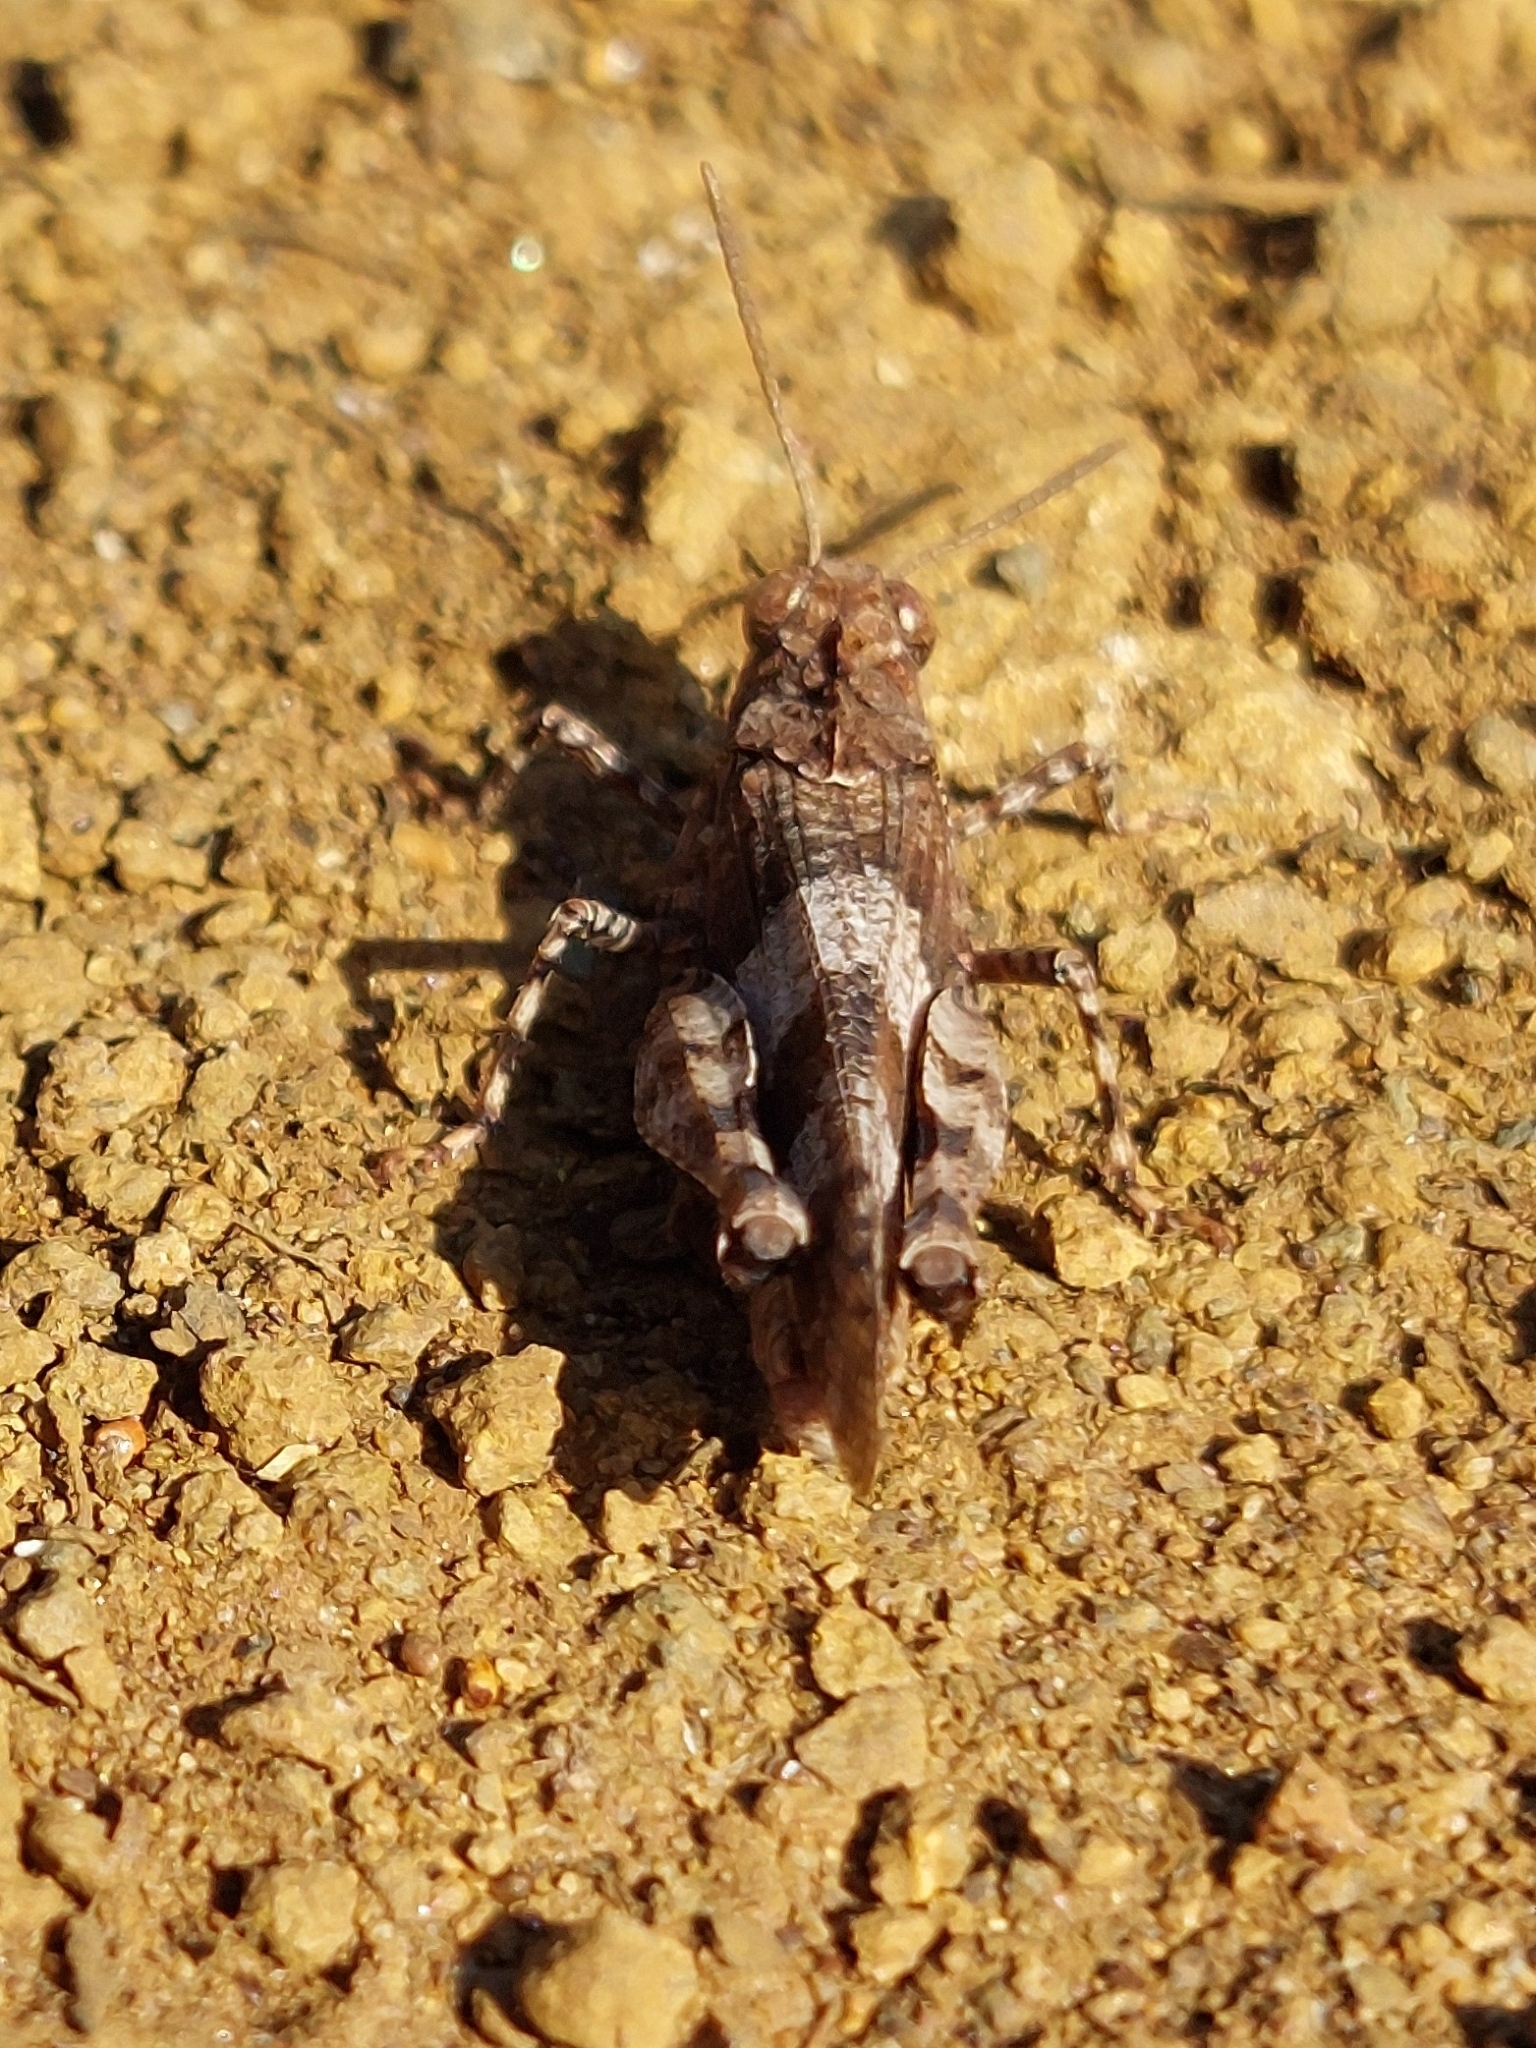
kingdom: Animalia
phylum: Arthropoda
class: Insecta
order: Orthoptera
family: Acrididae
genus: Oedipoda
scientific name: Oedipoda caerulescens
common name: Blue-winged grasshopper
